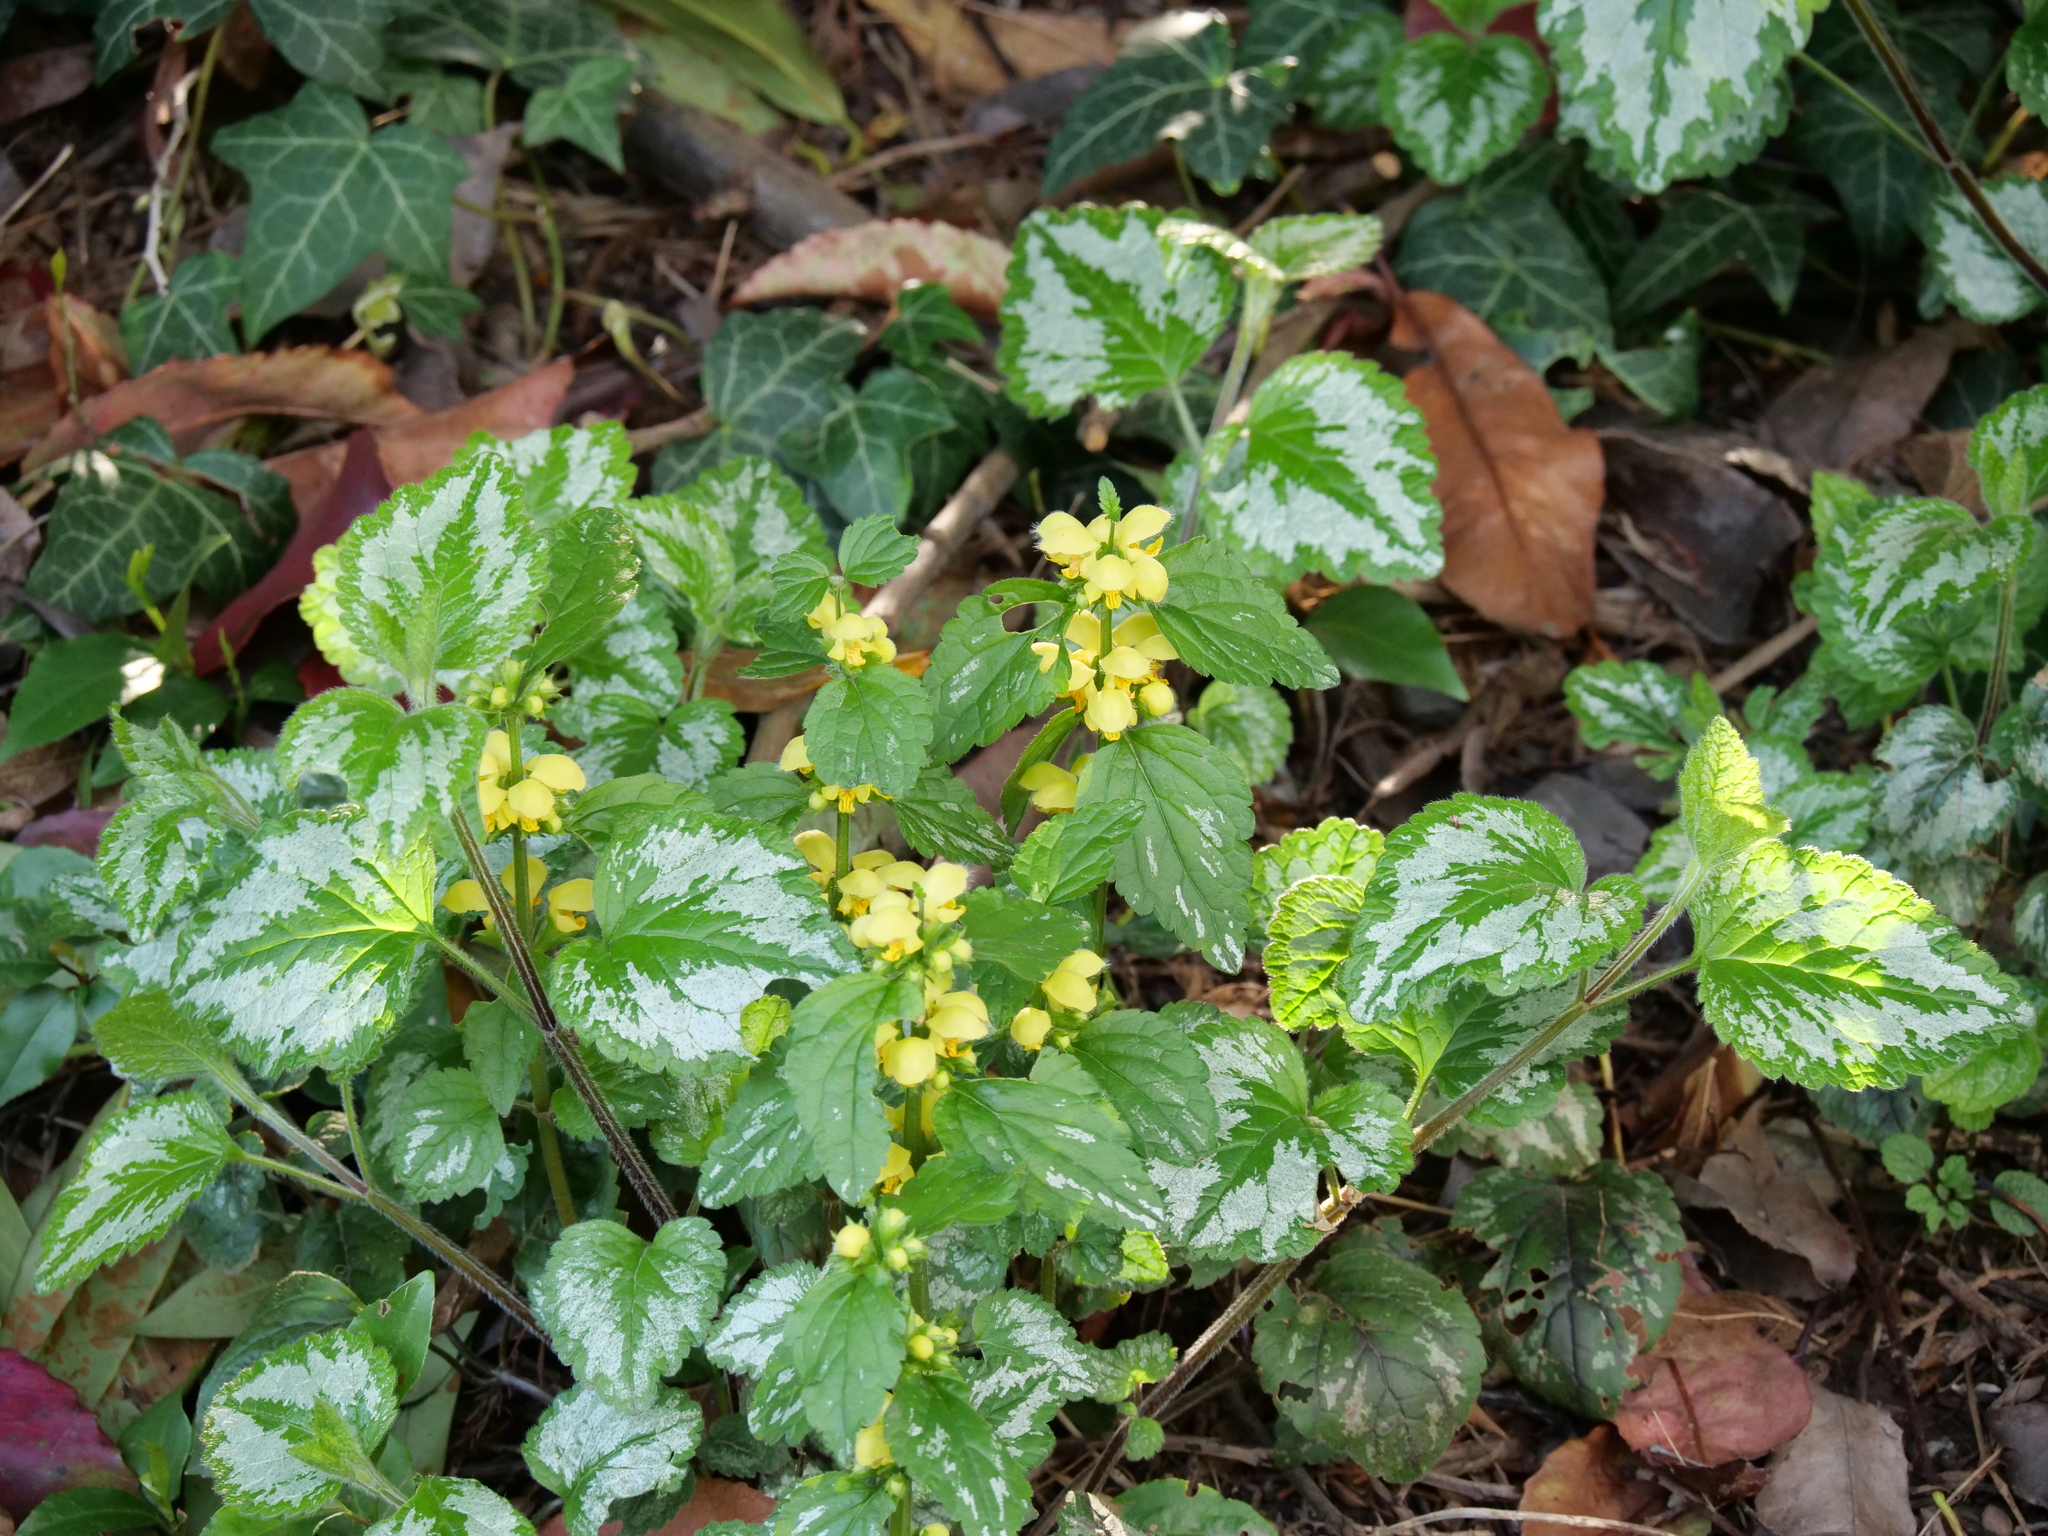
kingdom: Plantae
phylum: Tracheophyta
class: Magnoliopsida
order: Lamiales
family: Lamiaceae
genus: Lamium
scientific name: Lamium galeobdolon
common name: Yellow archangel
